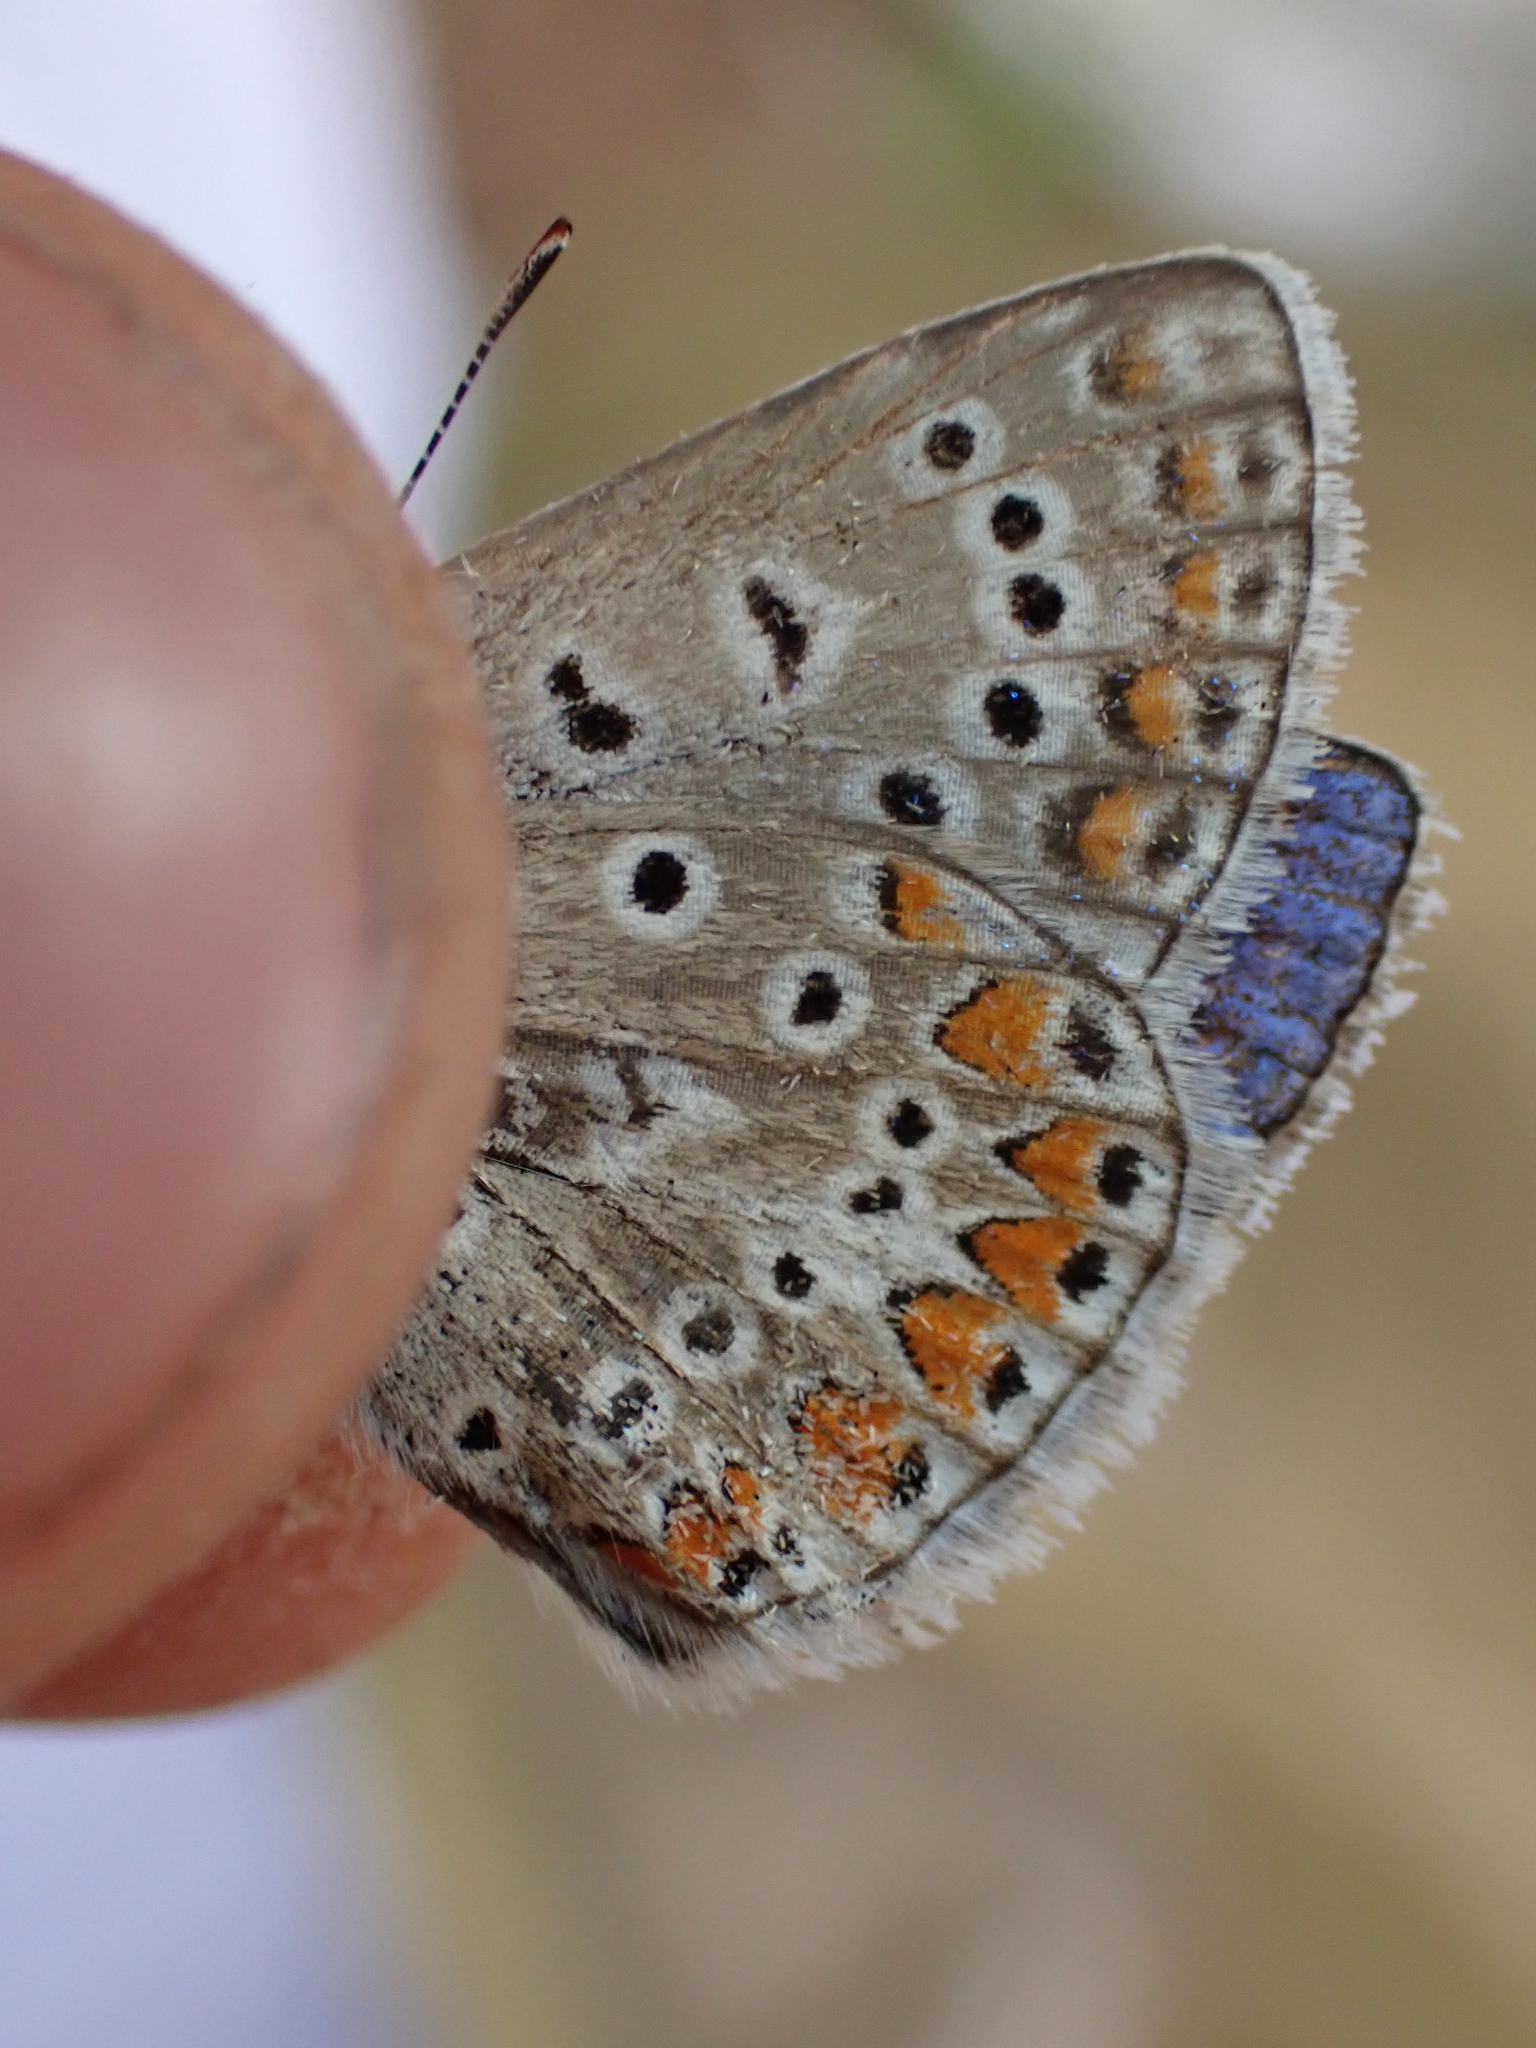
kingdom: Animalia
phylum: Arthropoda
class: Insecta
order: Lepidoptera
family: Lycaenidae
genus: Polyommatus
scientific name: Polyommatus icarus
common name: Common blue
